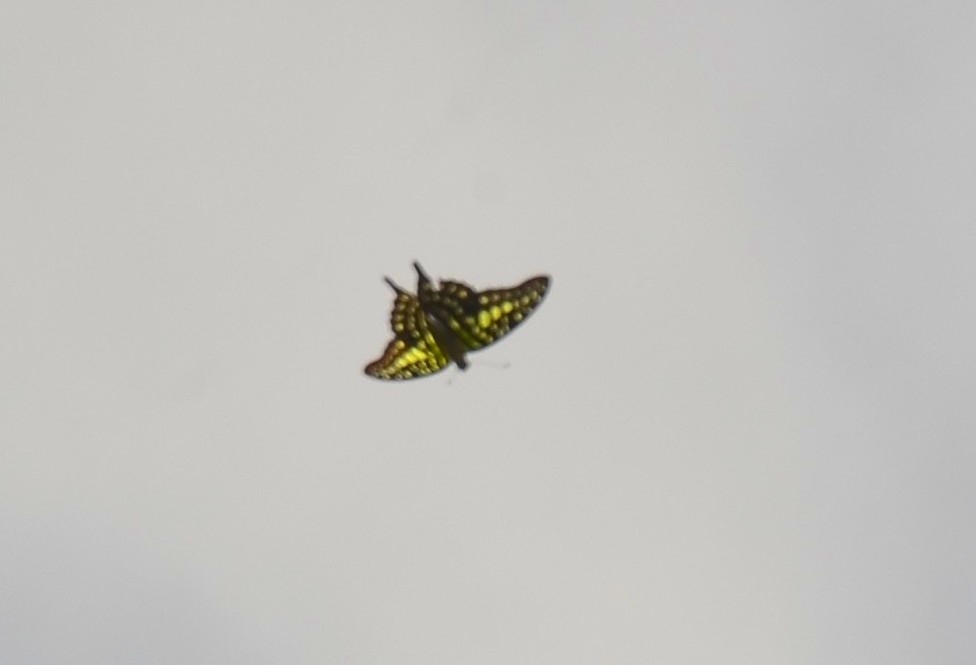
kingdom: Animalia
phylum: Arthropoda
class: Insecta
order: Lepidoptera
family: Papilionidae
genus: Graphium
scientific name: Graphium agamemnon
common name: Tailed jay
